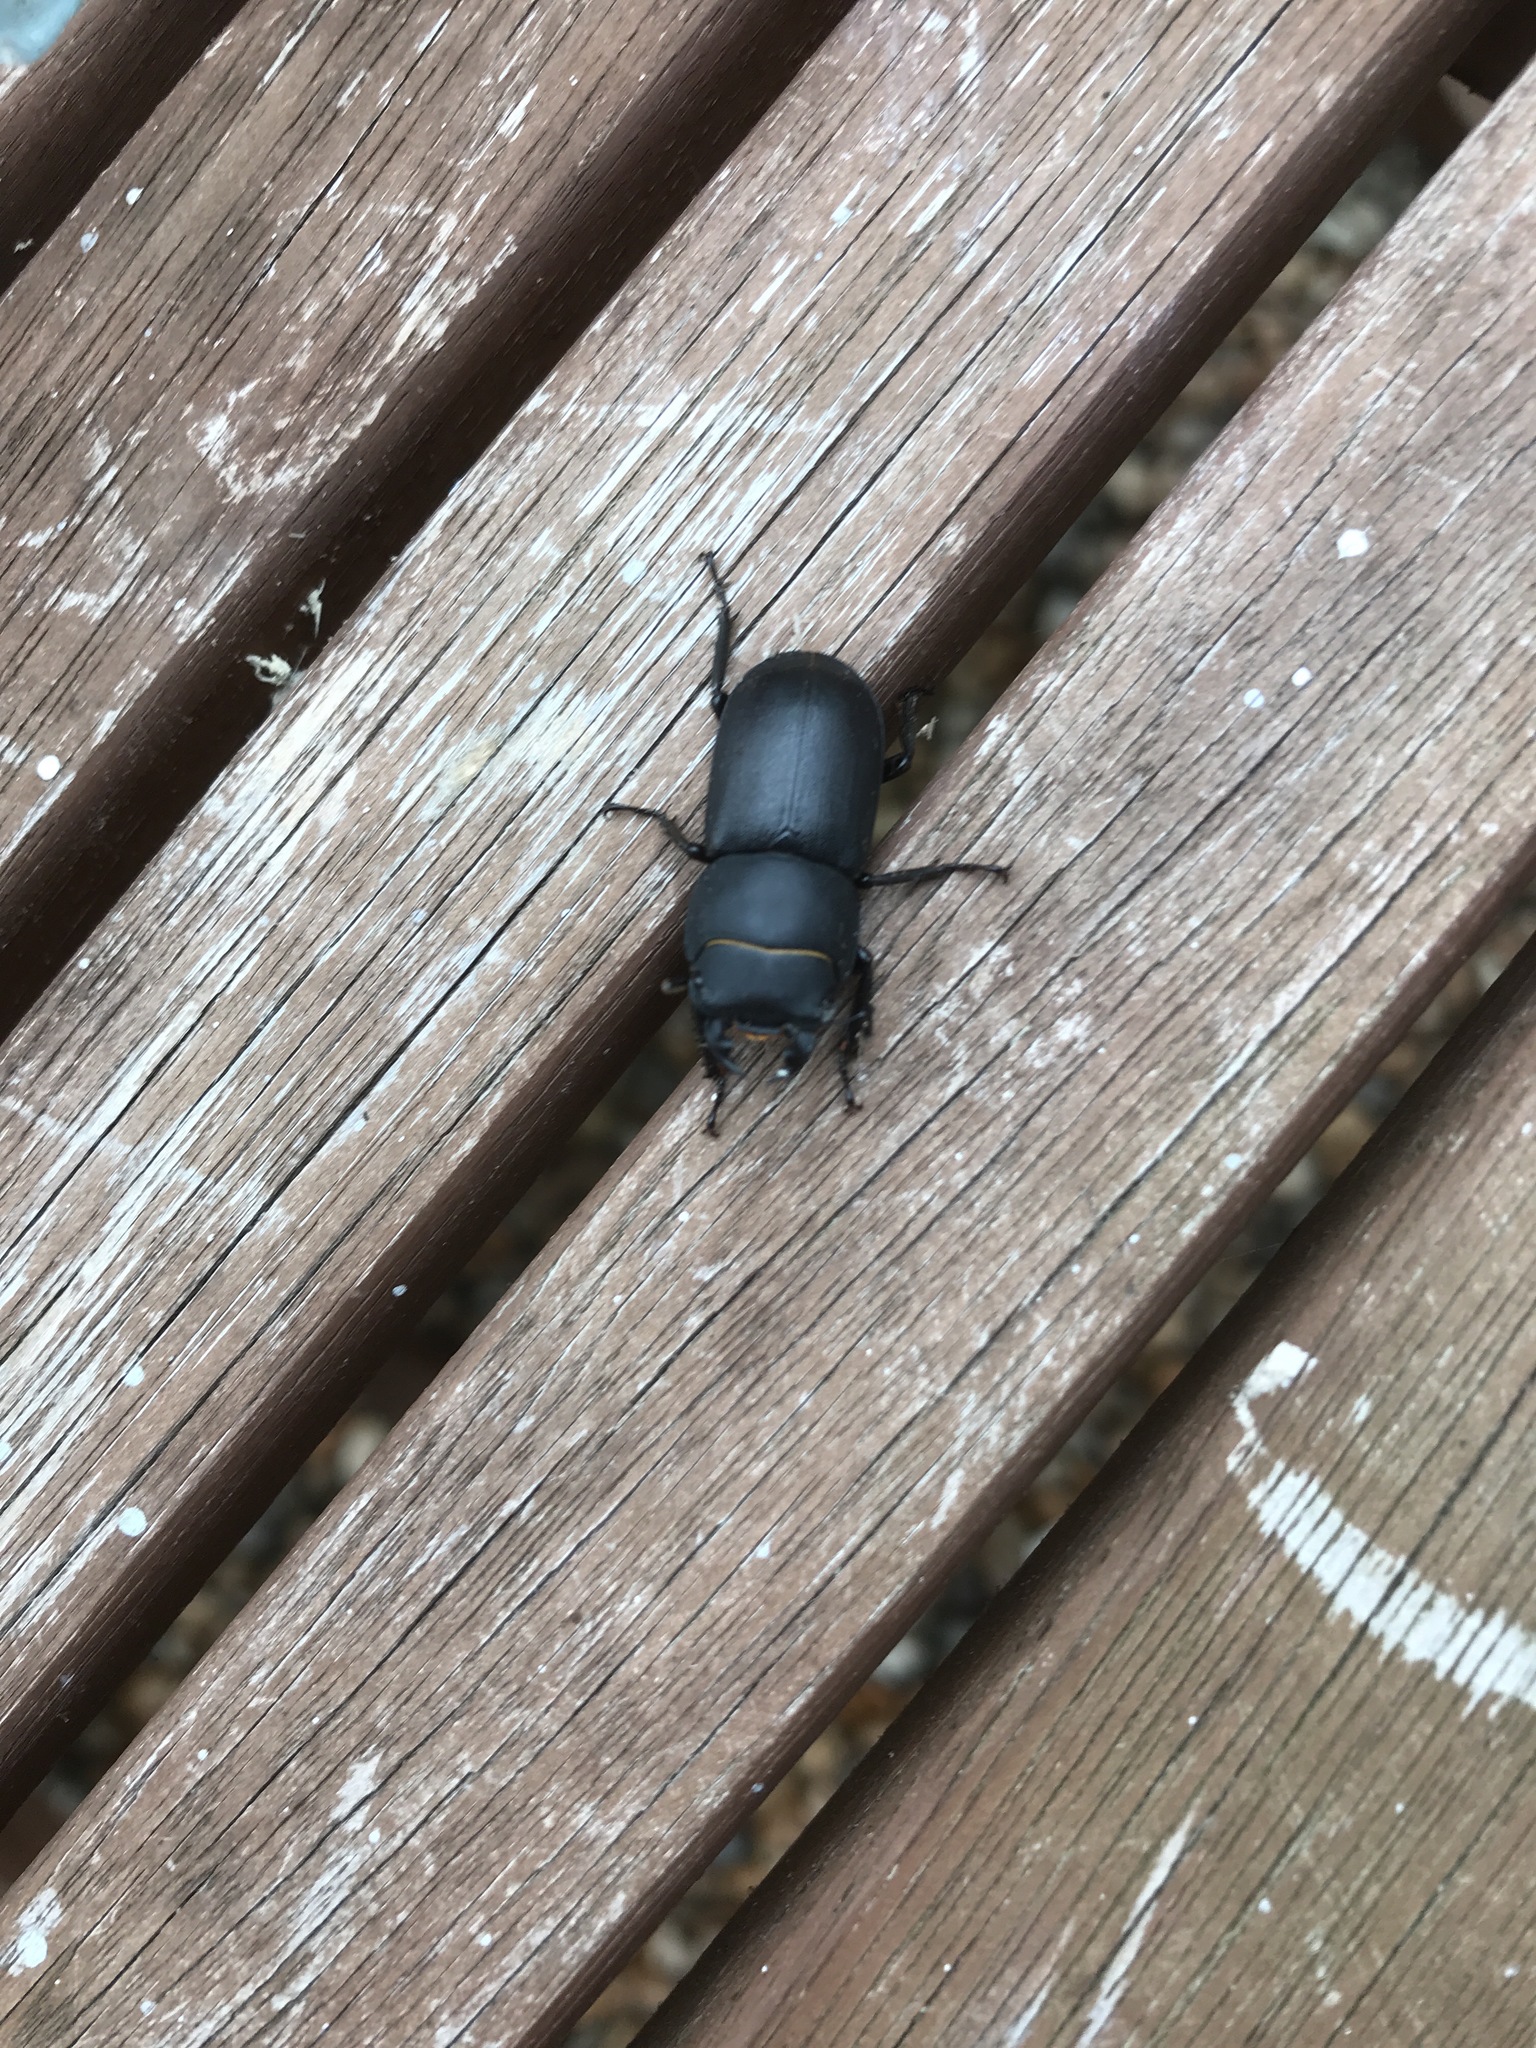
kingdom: Animalia
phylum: Arthropoda
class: Insecta
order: Coleoptera
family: Lucanidae
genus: Dorcus
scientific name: Dorcus parallelipipedus
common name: Lesser stag beetle
